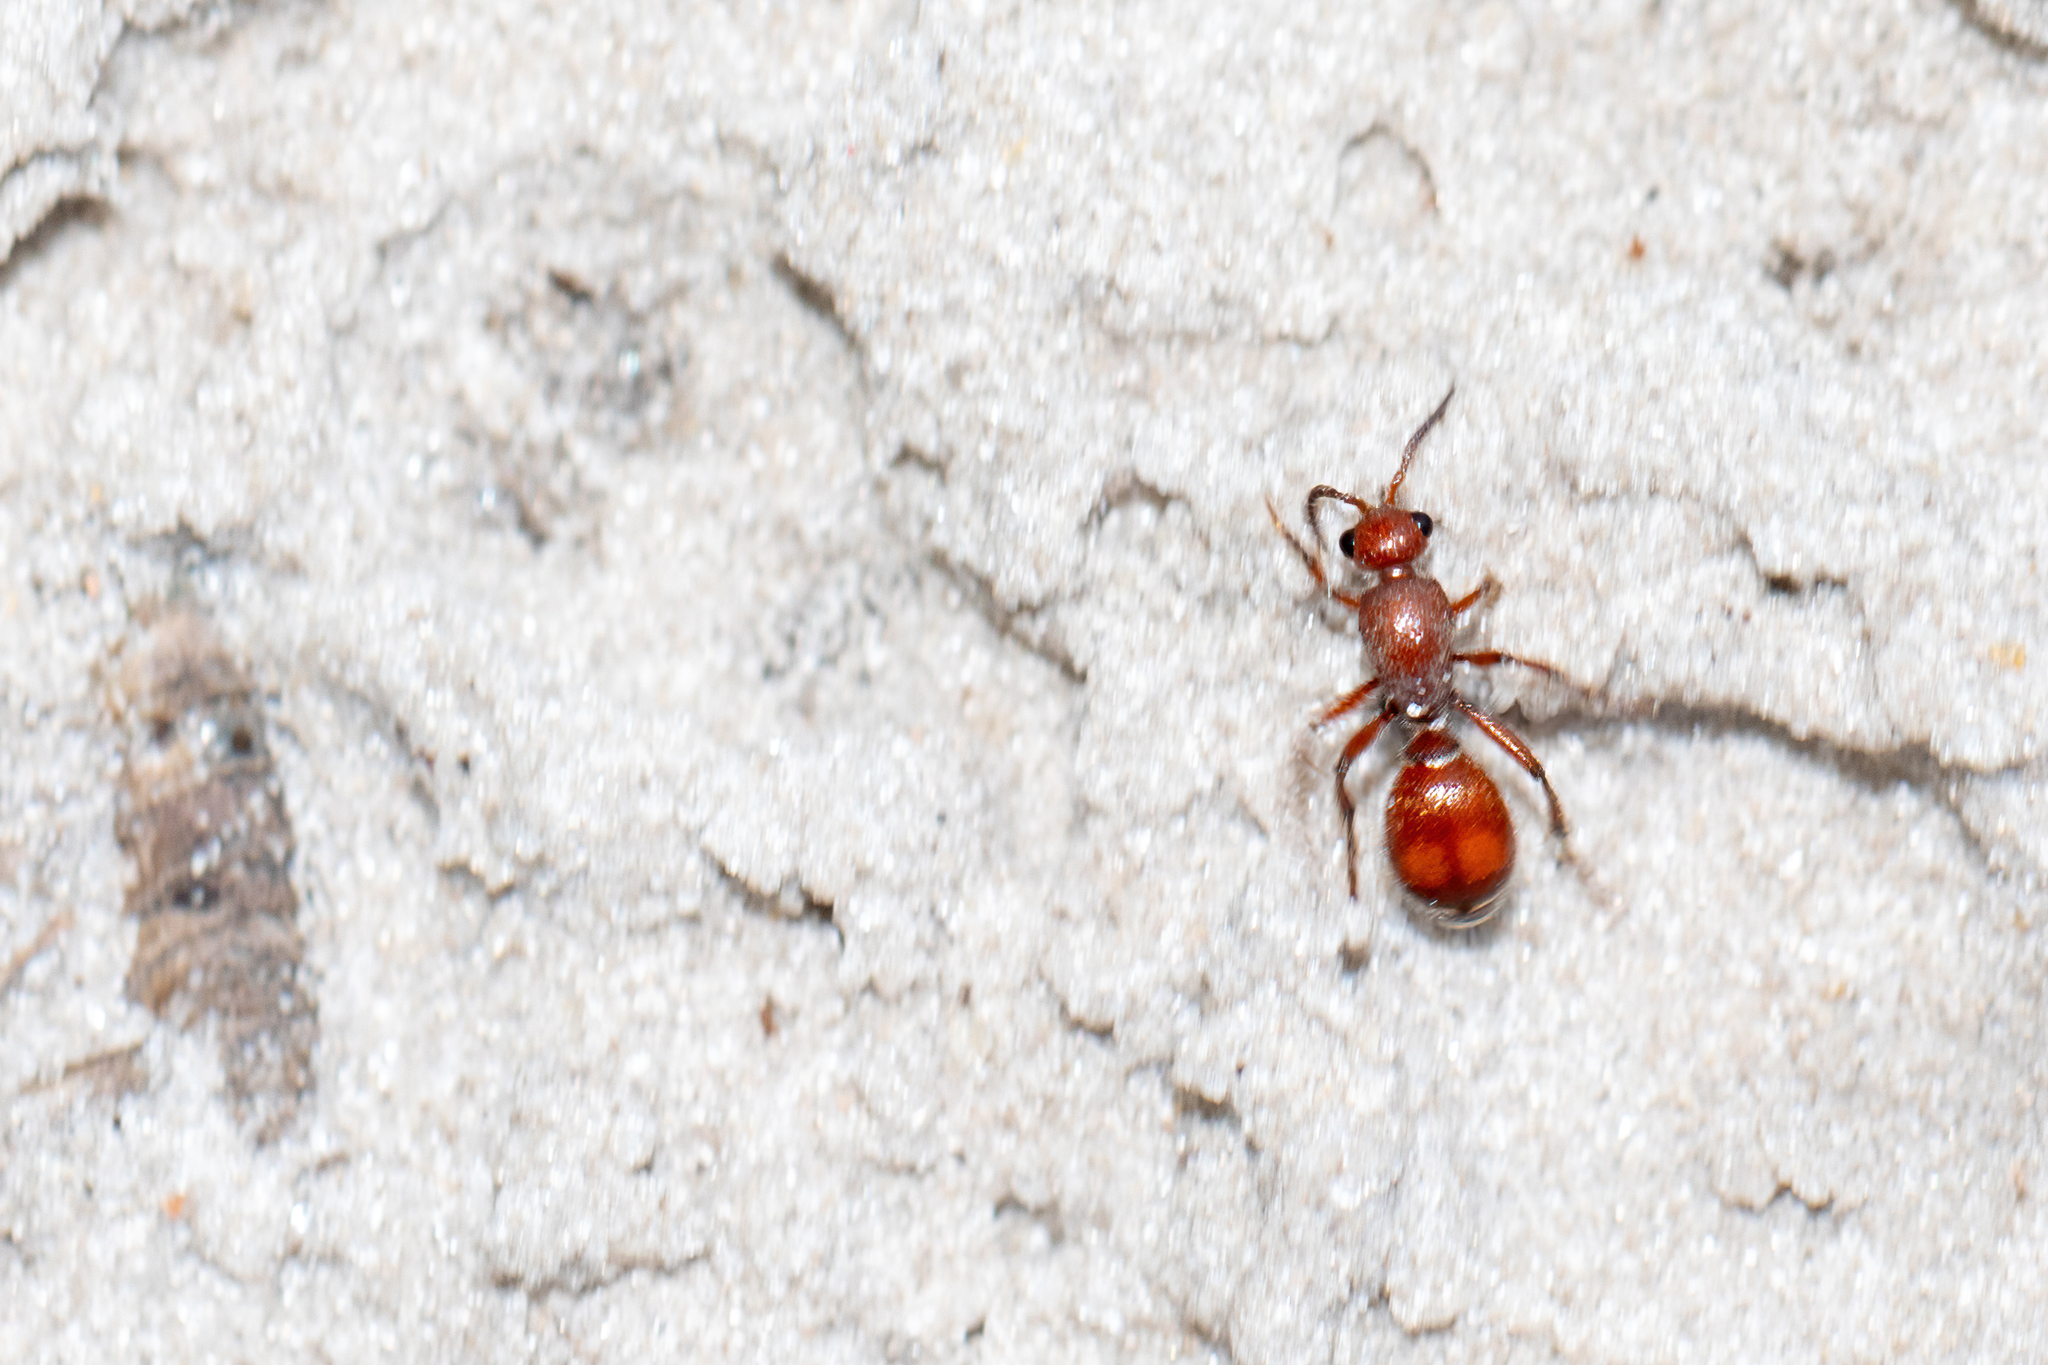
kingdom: Animalia
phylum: Arthropoda
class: Insecta
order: Hymenoptera
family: Mutillidae
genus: Dasymutilla
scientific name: Dasymutilla
